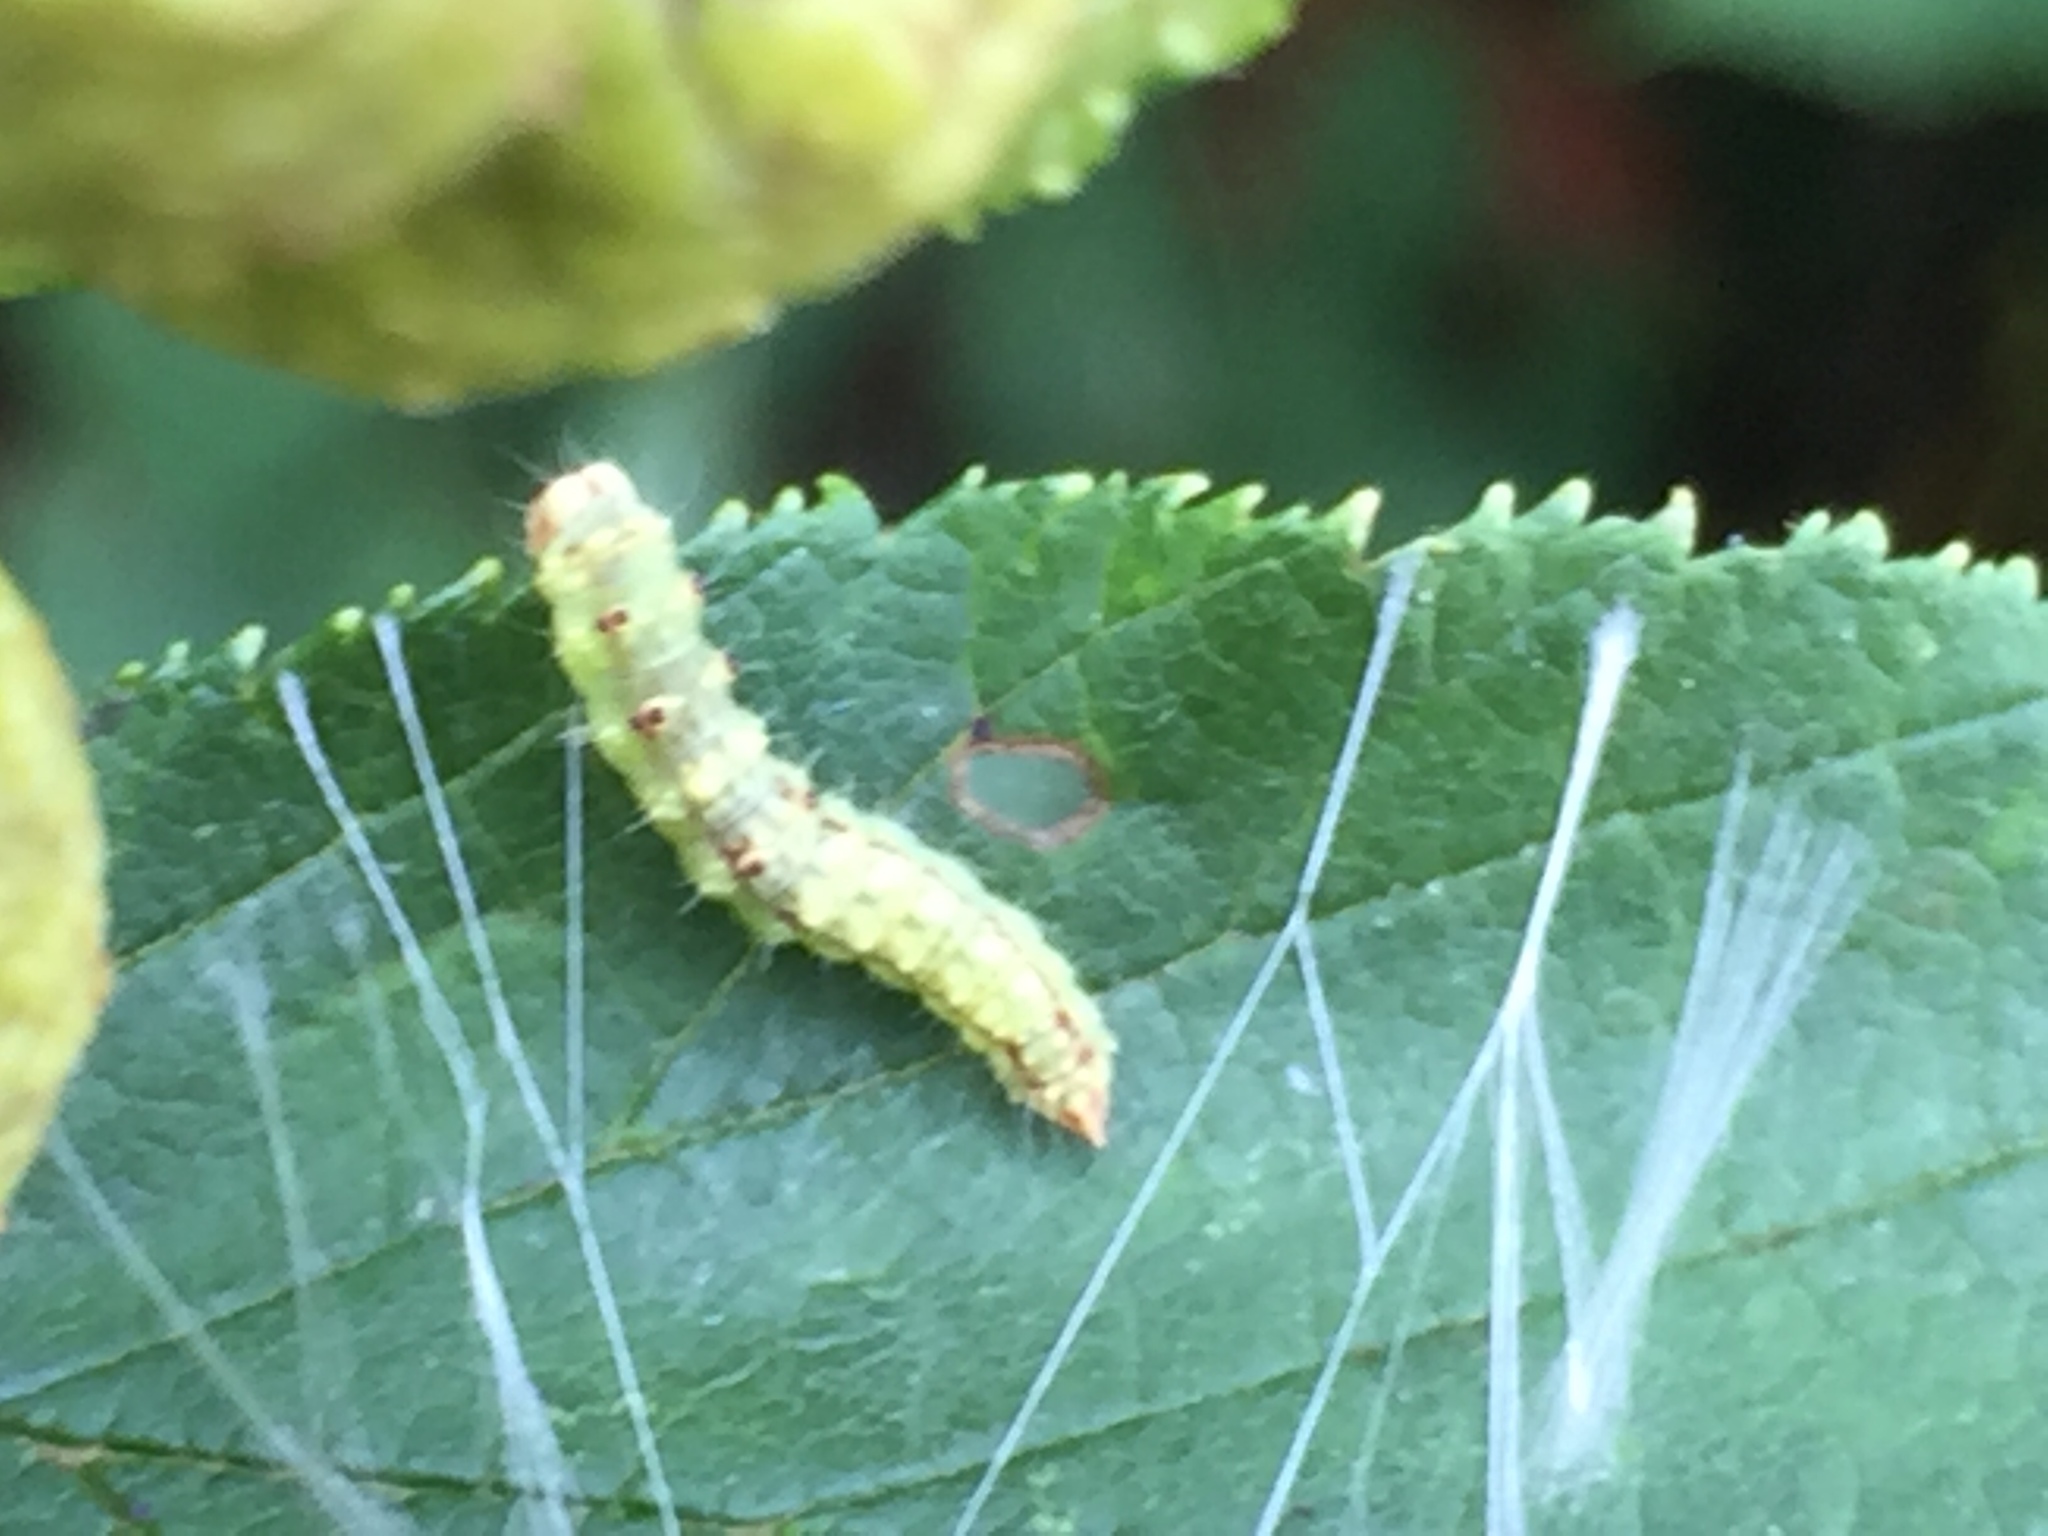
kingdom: Animalia
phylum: Arthropoda
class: Insecta
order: Lepidoptera
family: Drepanidae
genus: Drepana
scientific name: Drepana arcuata
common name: Arched hooktip moth
